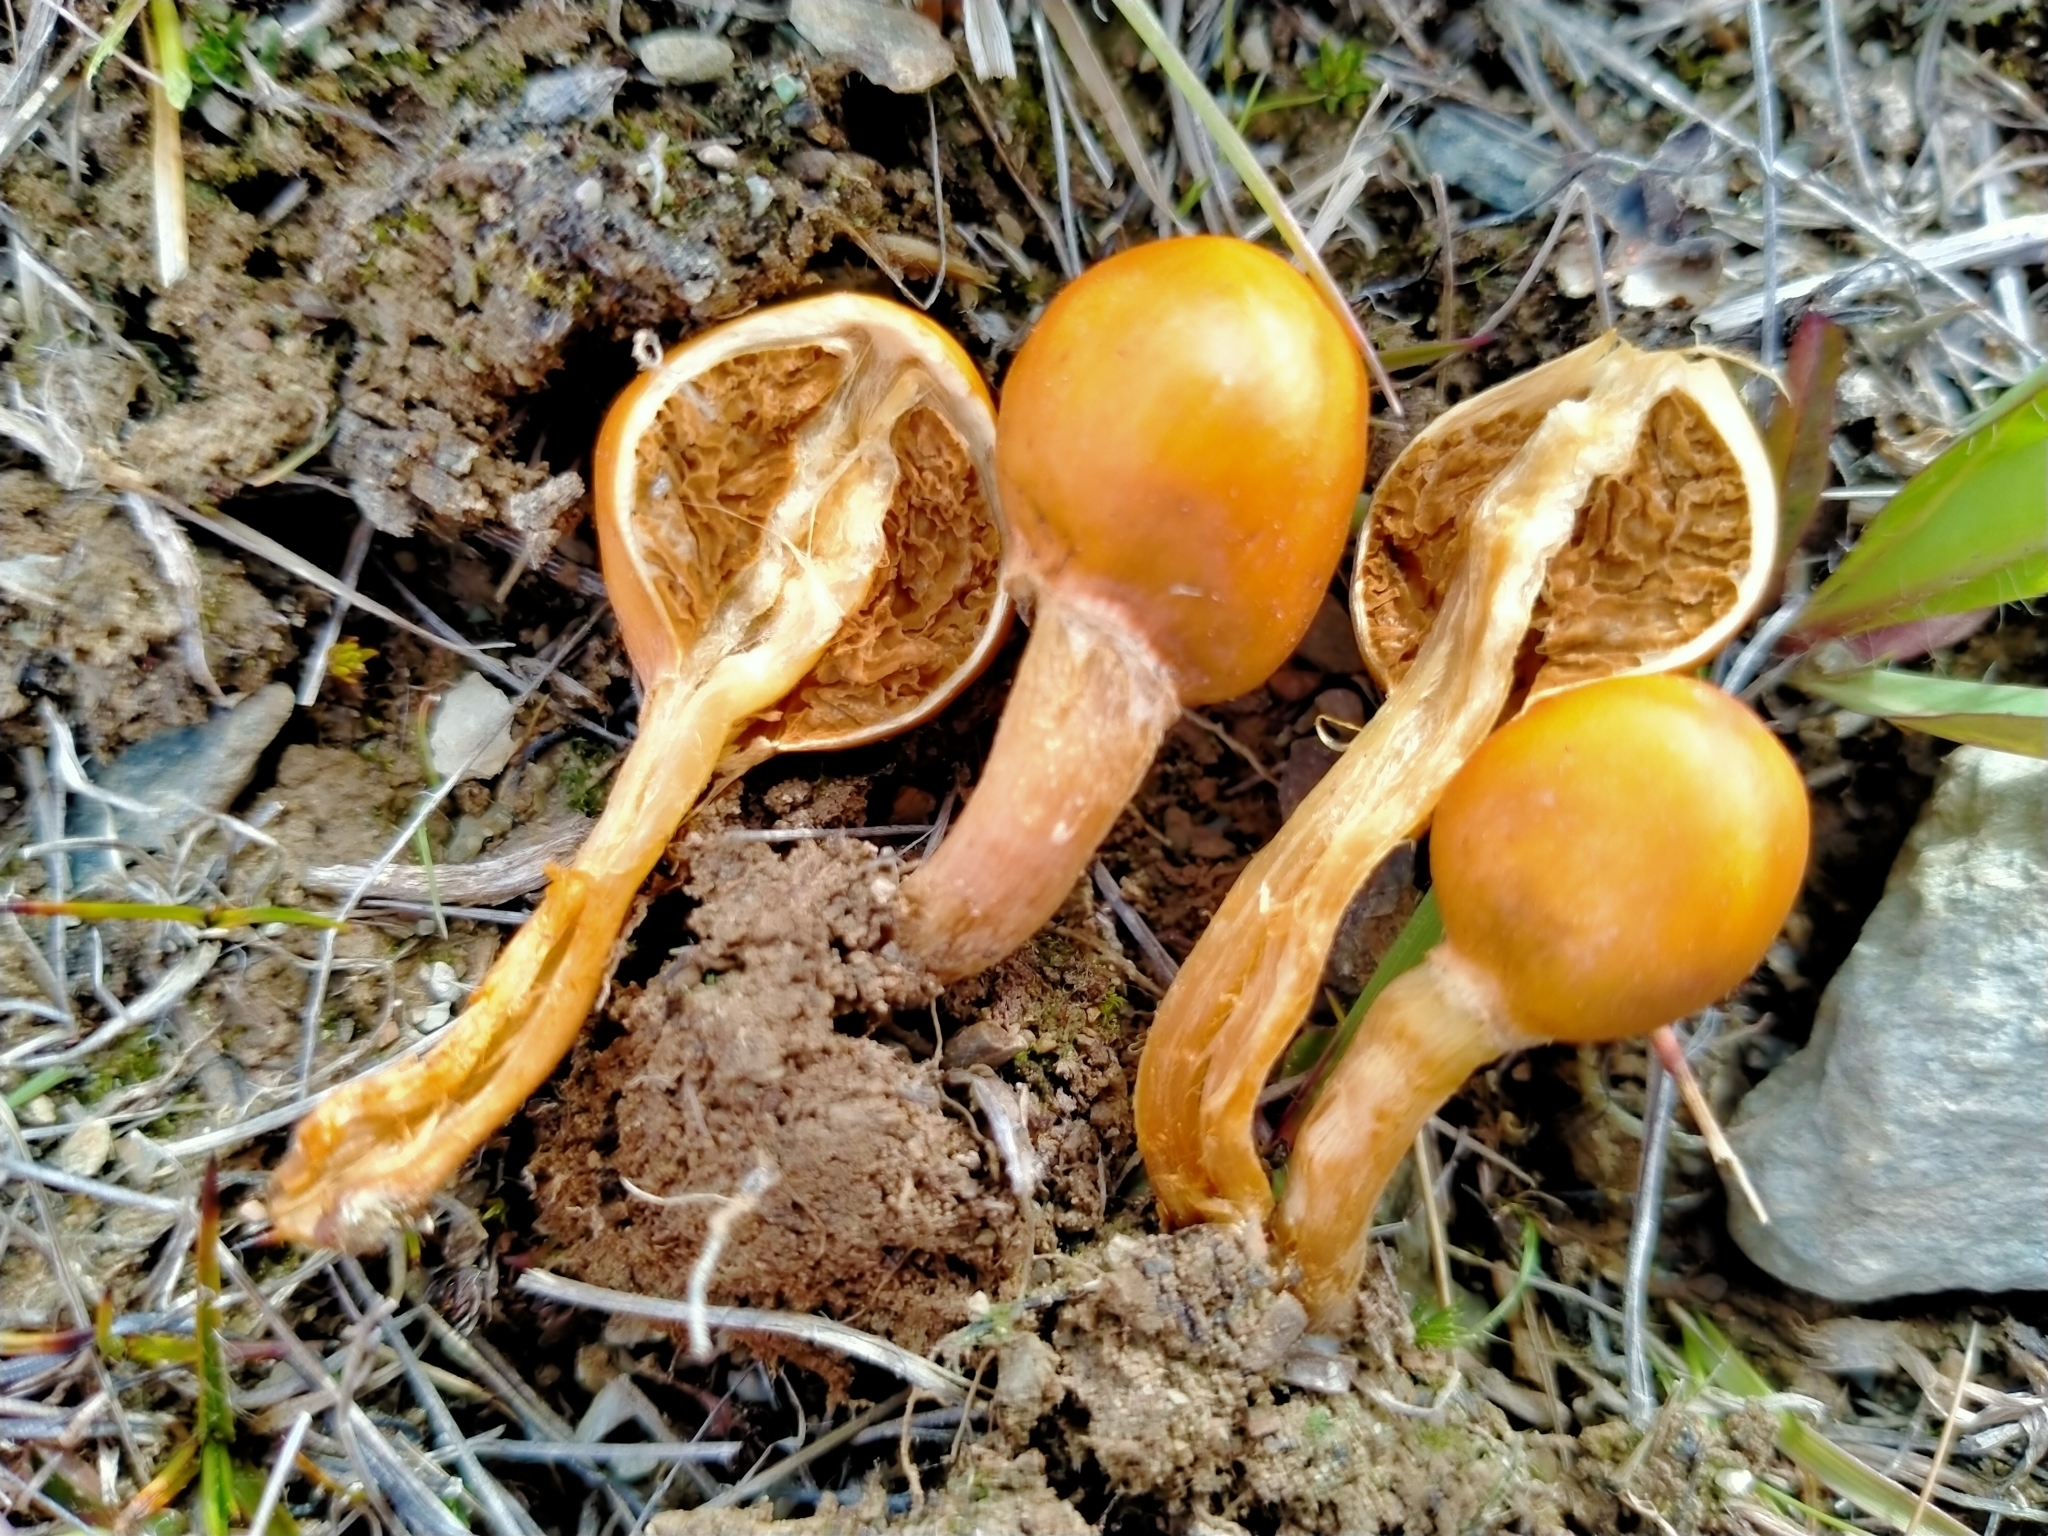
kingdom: Fungi
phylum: Basidiomycota
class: Agaricomycetes
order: Agaricales
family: Strophariaceae
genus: Deconica
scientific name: Deconica baylisiana
